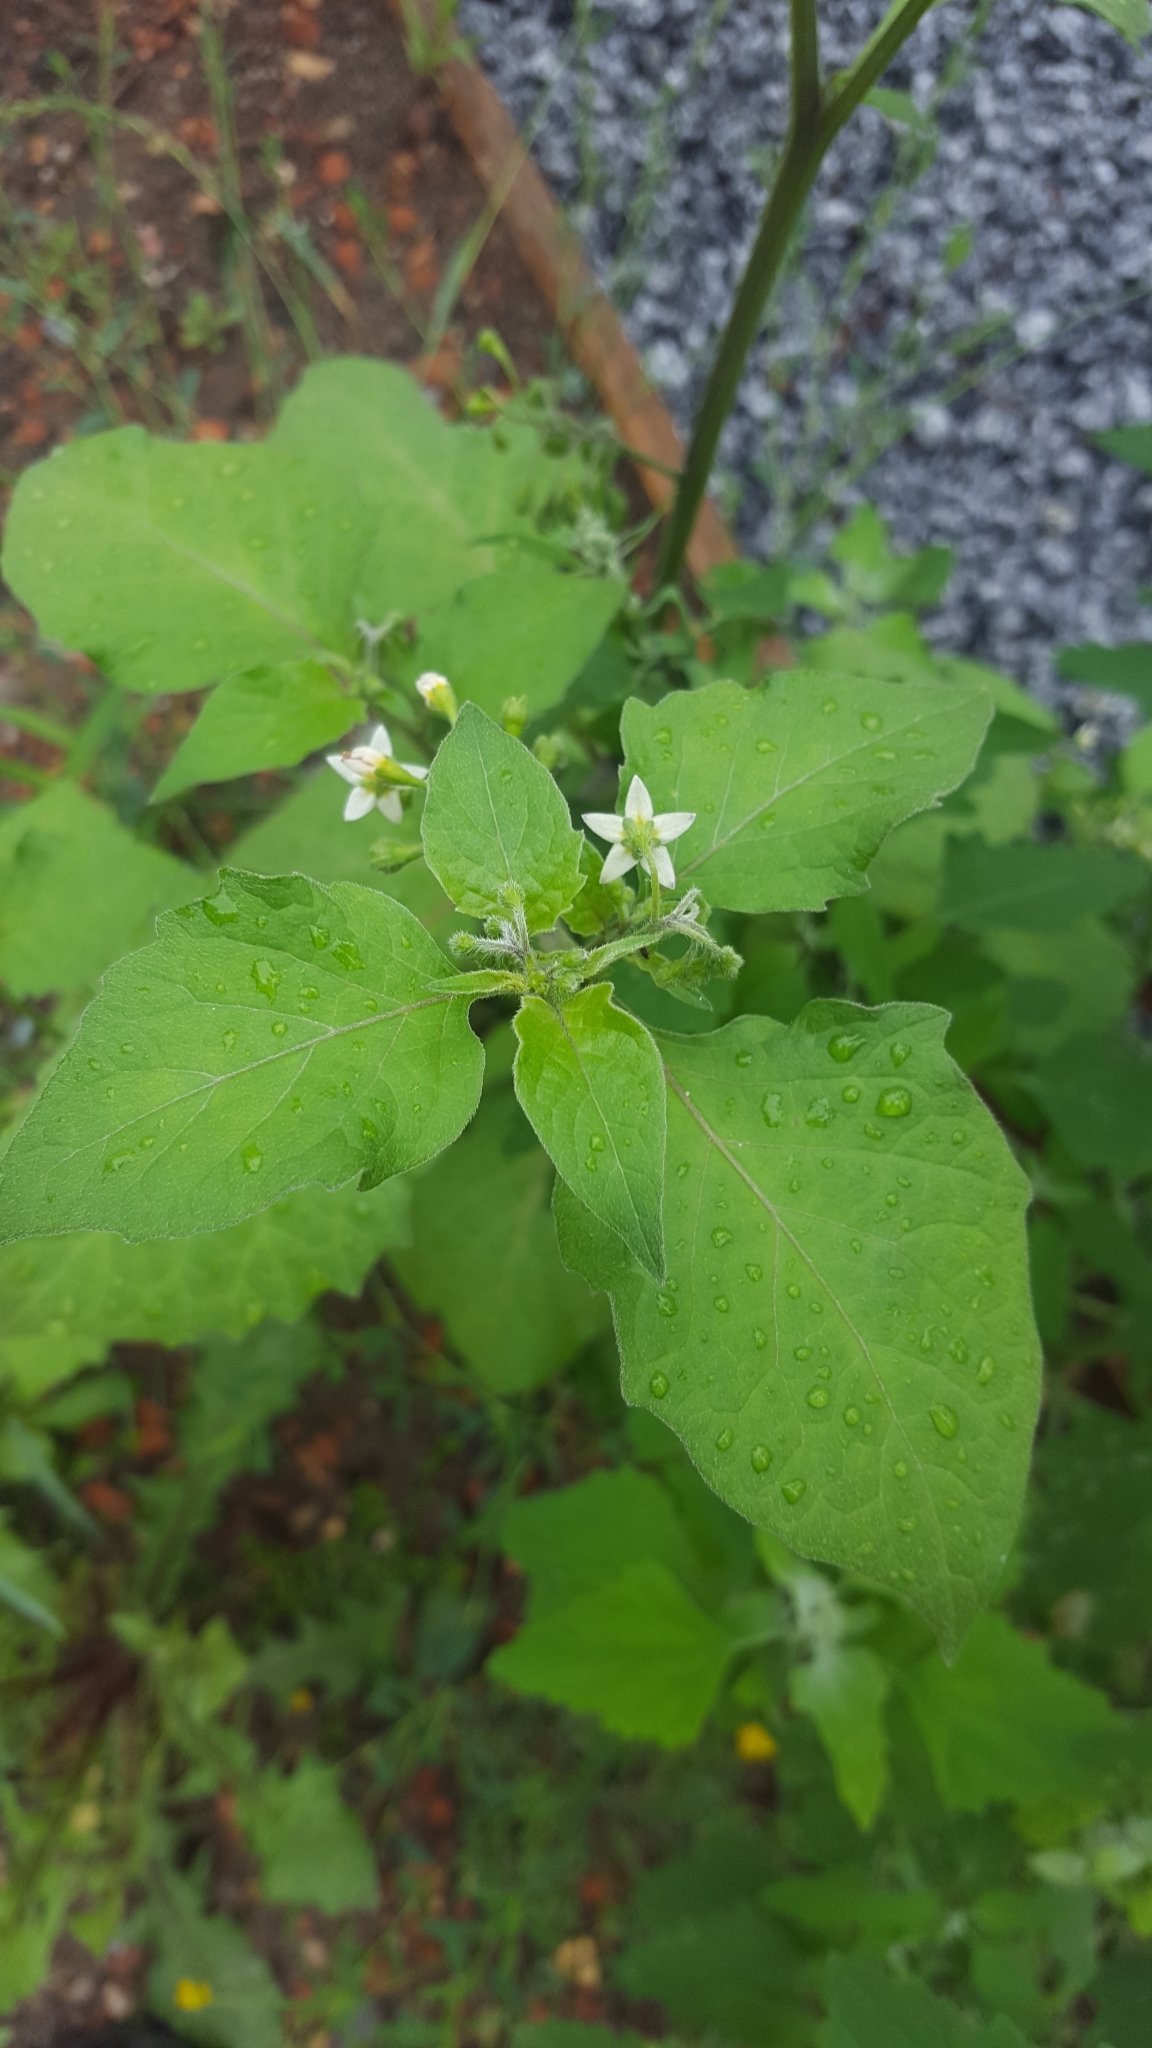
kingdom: Plantae
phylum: Tracheophyta
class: Magnoliopsida
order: Solanales
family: Solanaceae
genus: Solanum
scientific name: Solanum nigrum
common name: Black nightshade
